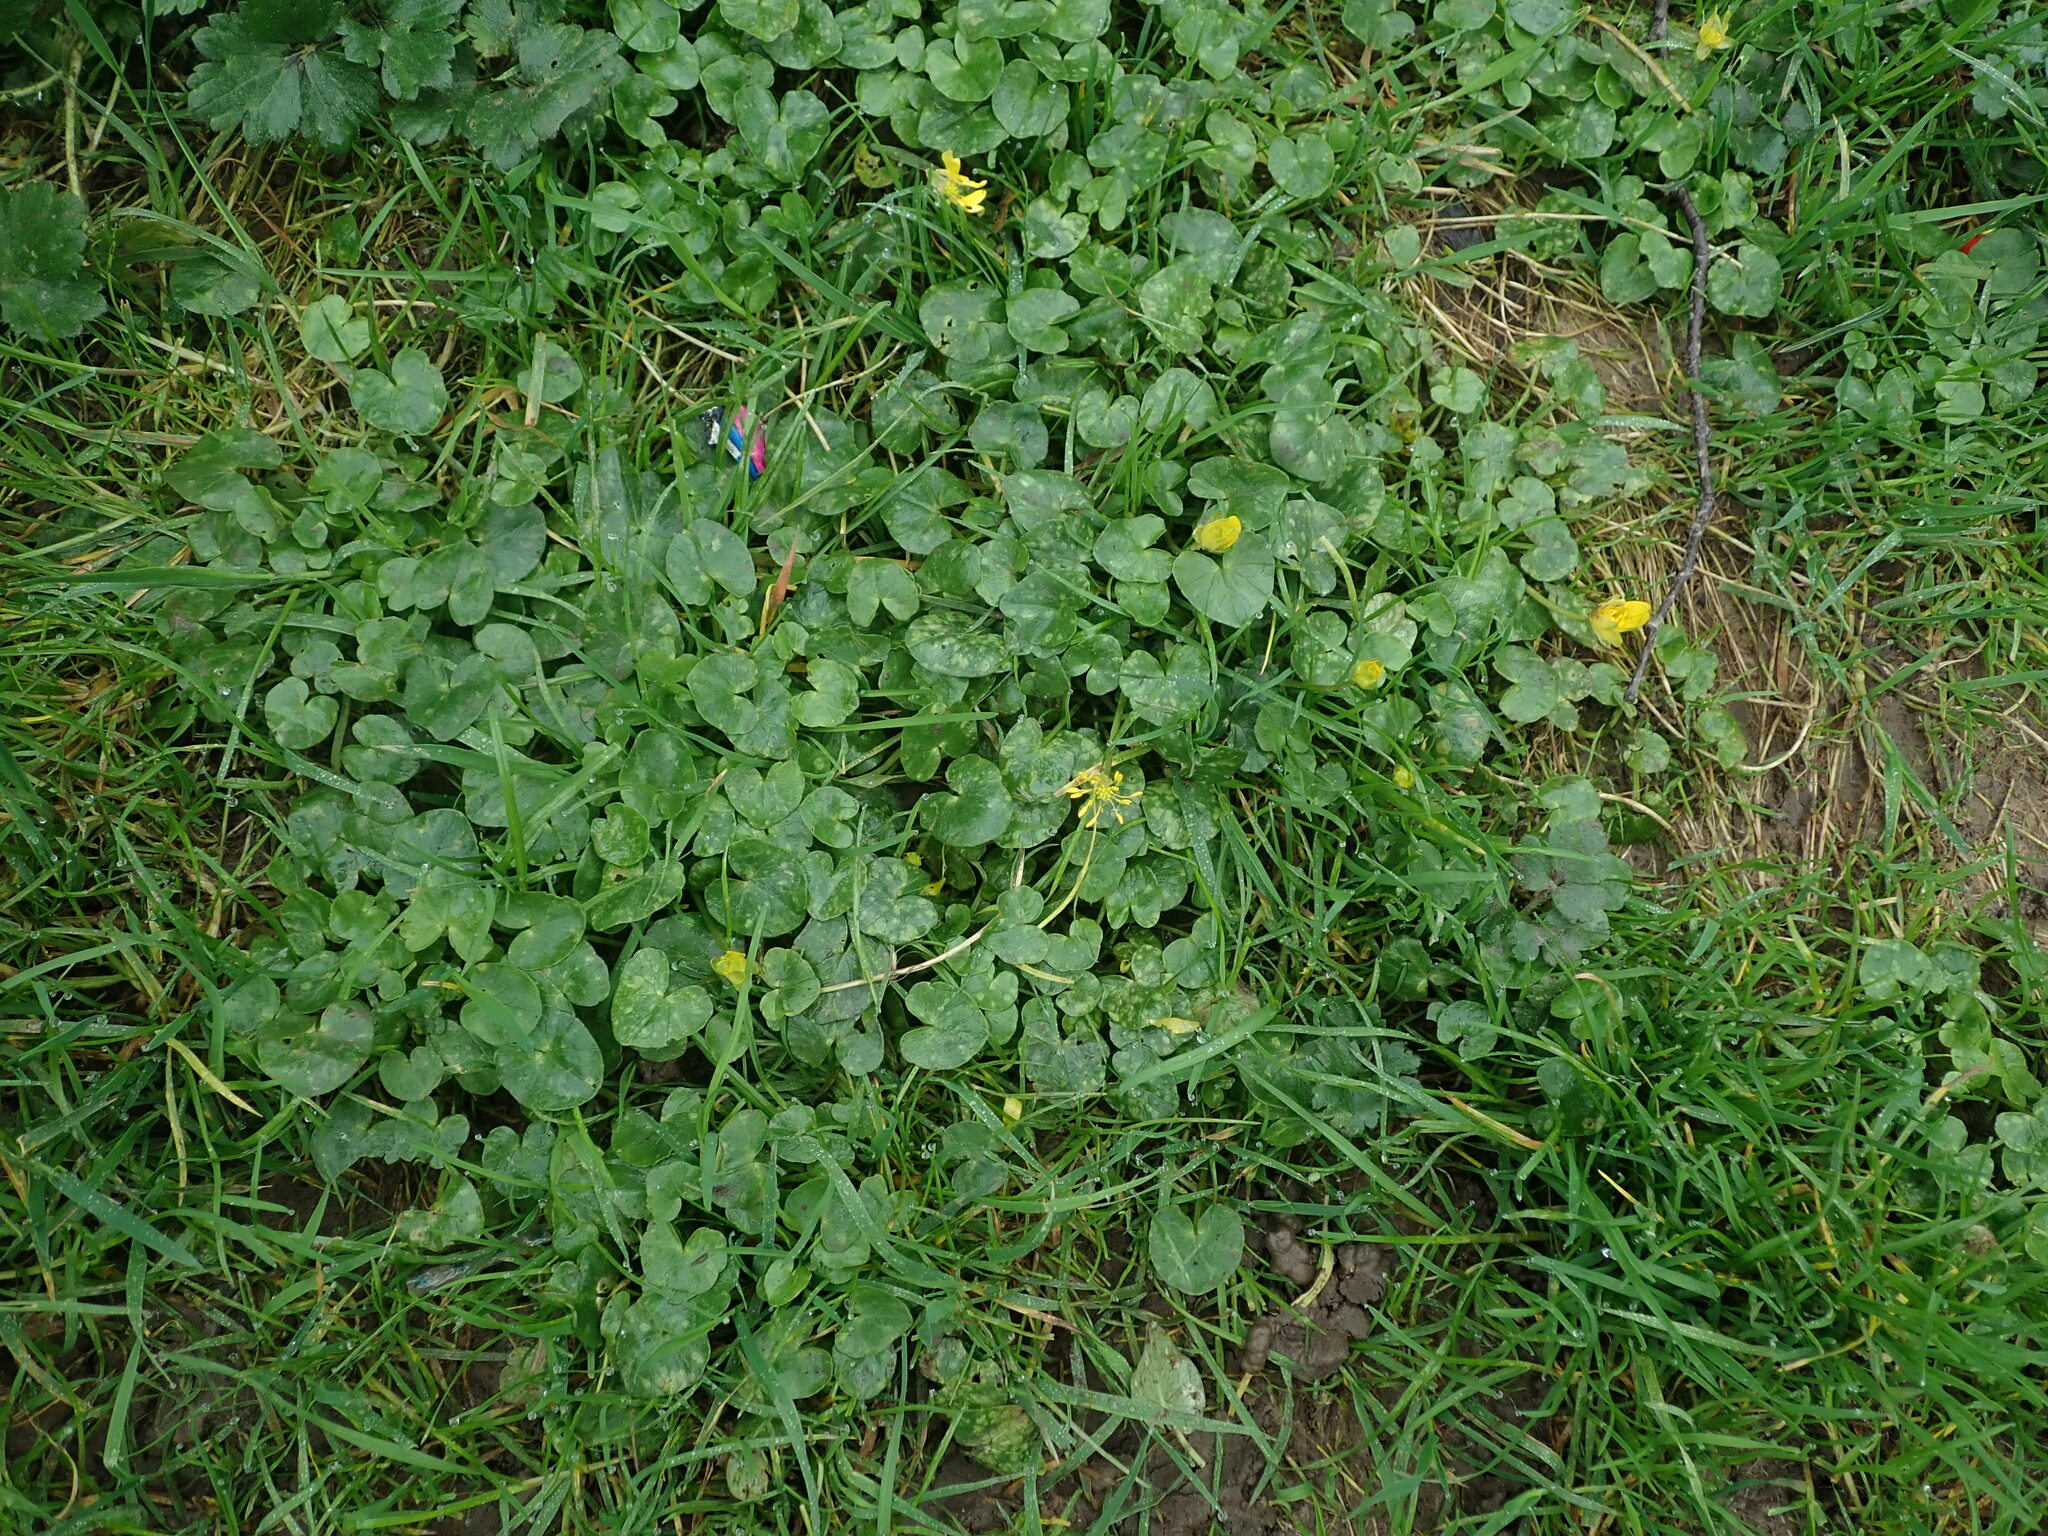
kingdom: Plantae
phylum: Tracheophyta
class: Magnoliopsida
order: Ranunculales
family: Ranunculaceae
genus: Ficaria
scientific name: Ficaria verna
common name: Lesser celandine
